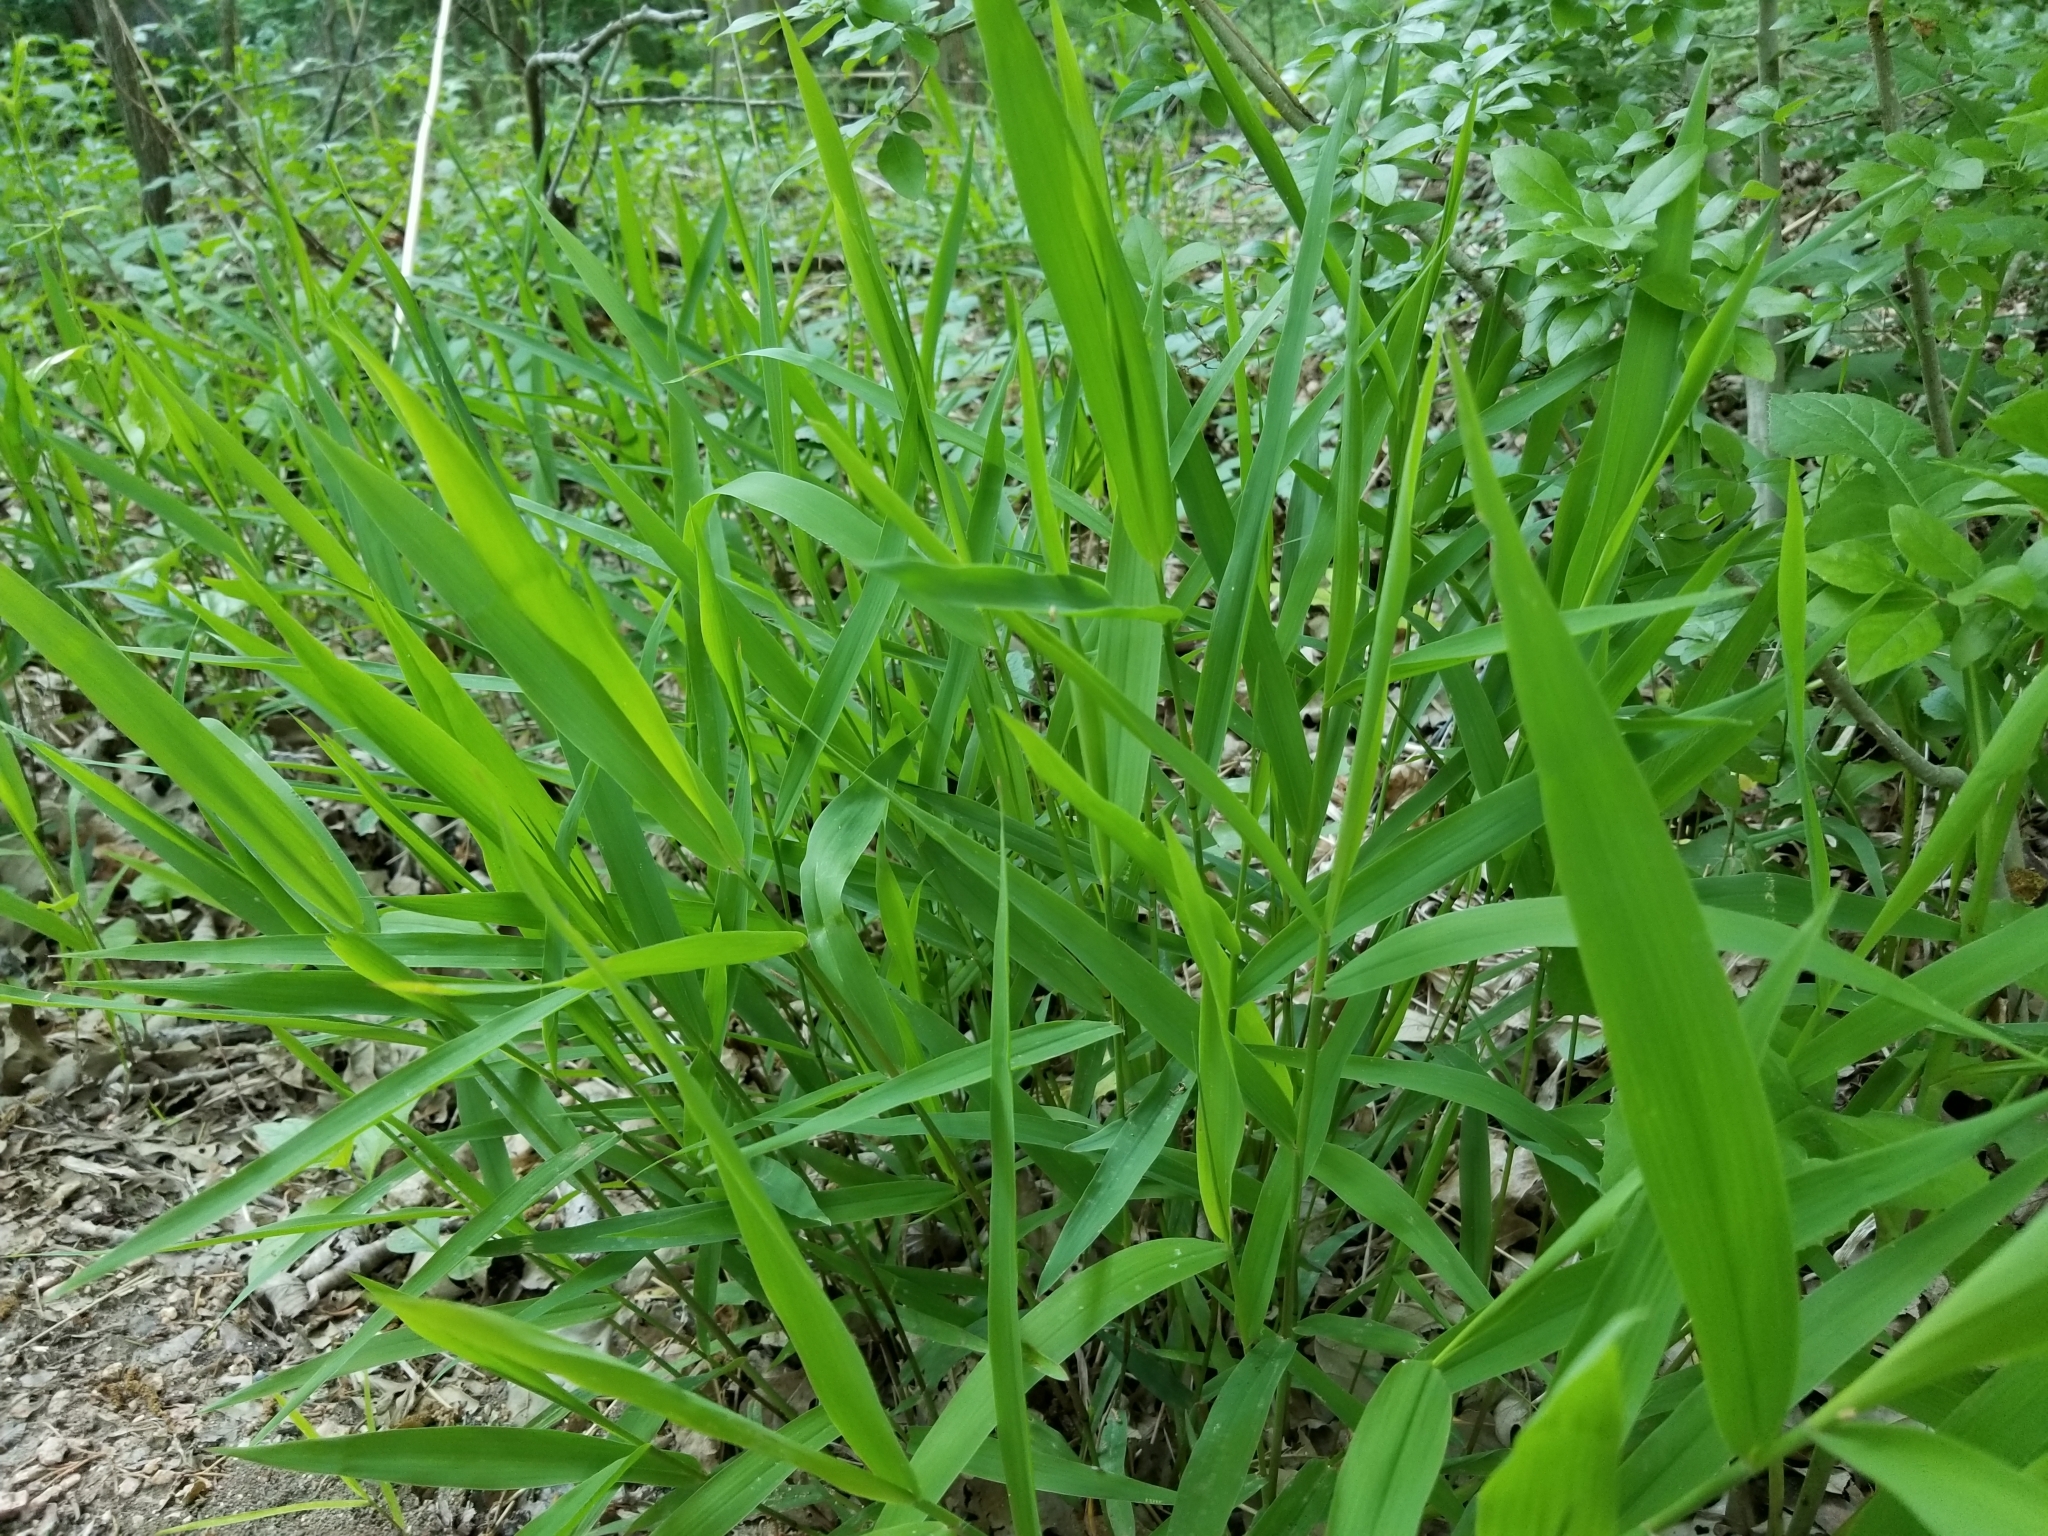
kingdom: Plantae
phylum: Tracheophyta
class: Liliopsida
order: Poales
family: Poaceae
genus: Chasmanthium
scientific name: Chasmanthium latifolium
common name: Broad-leaved chasmanthium
